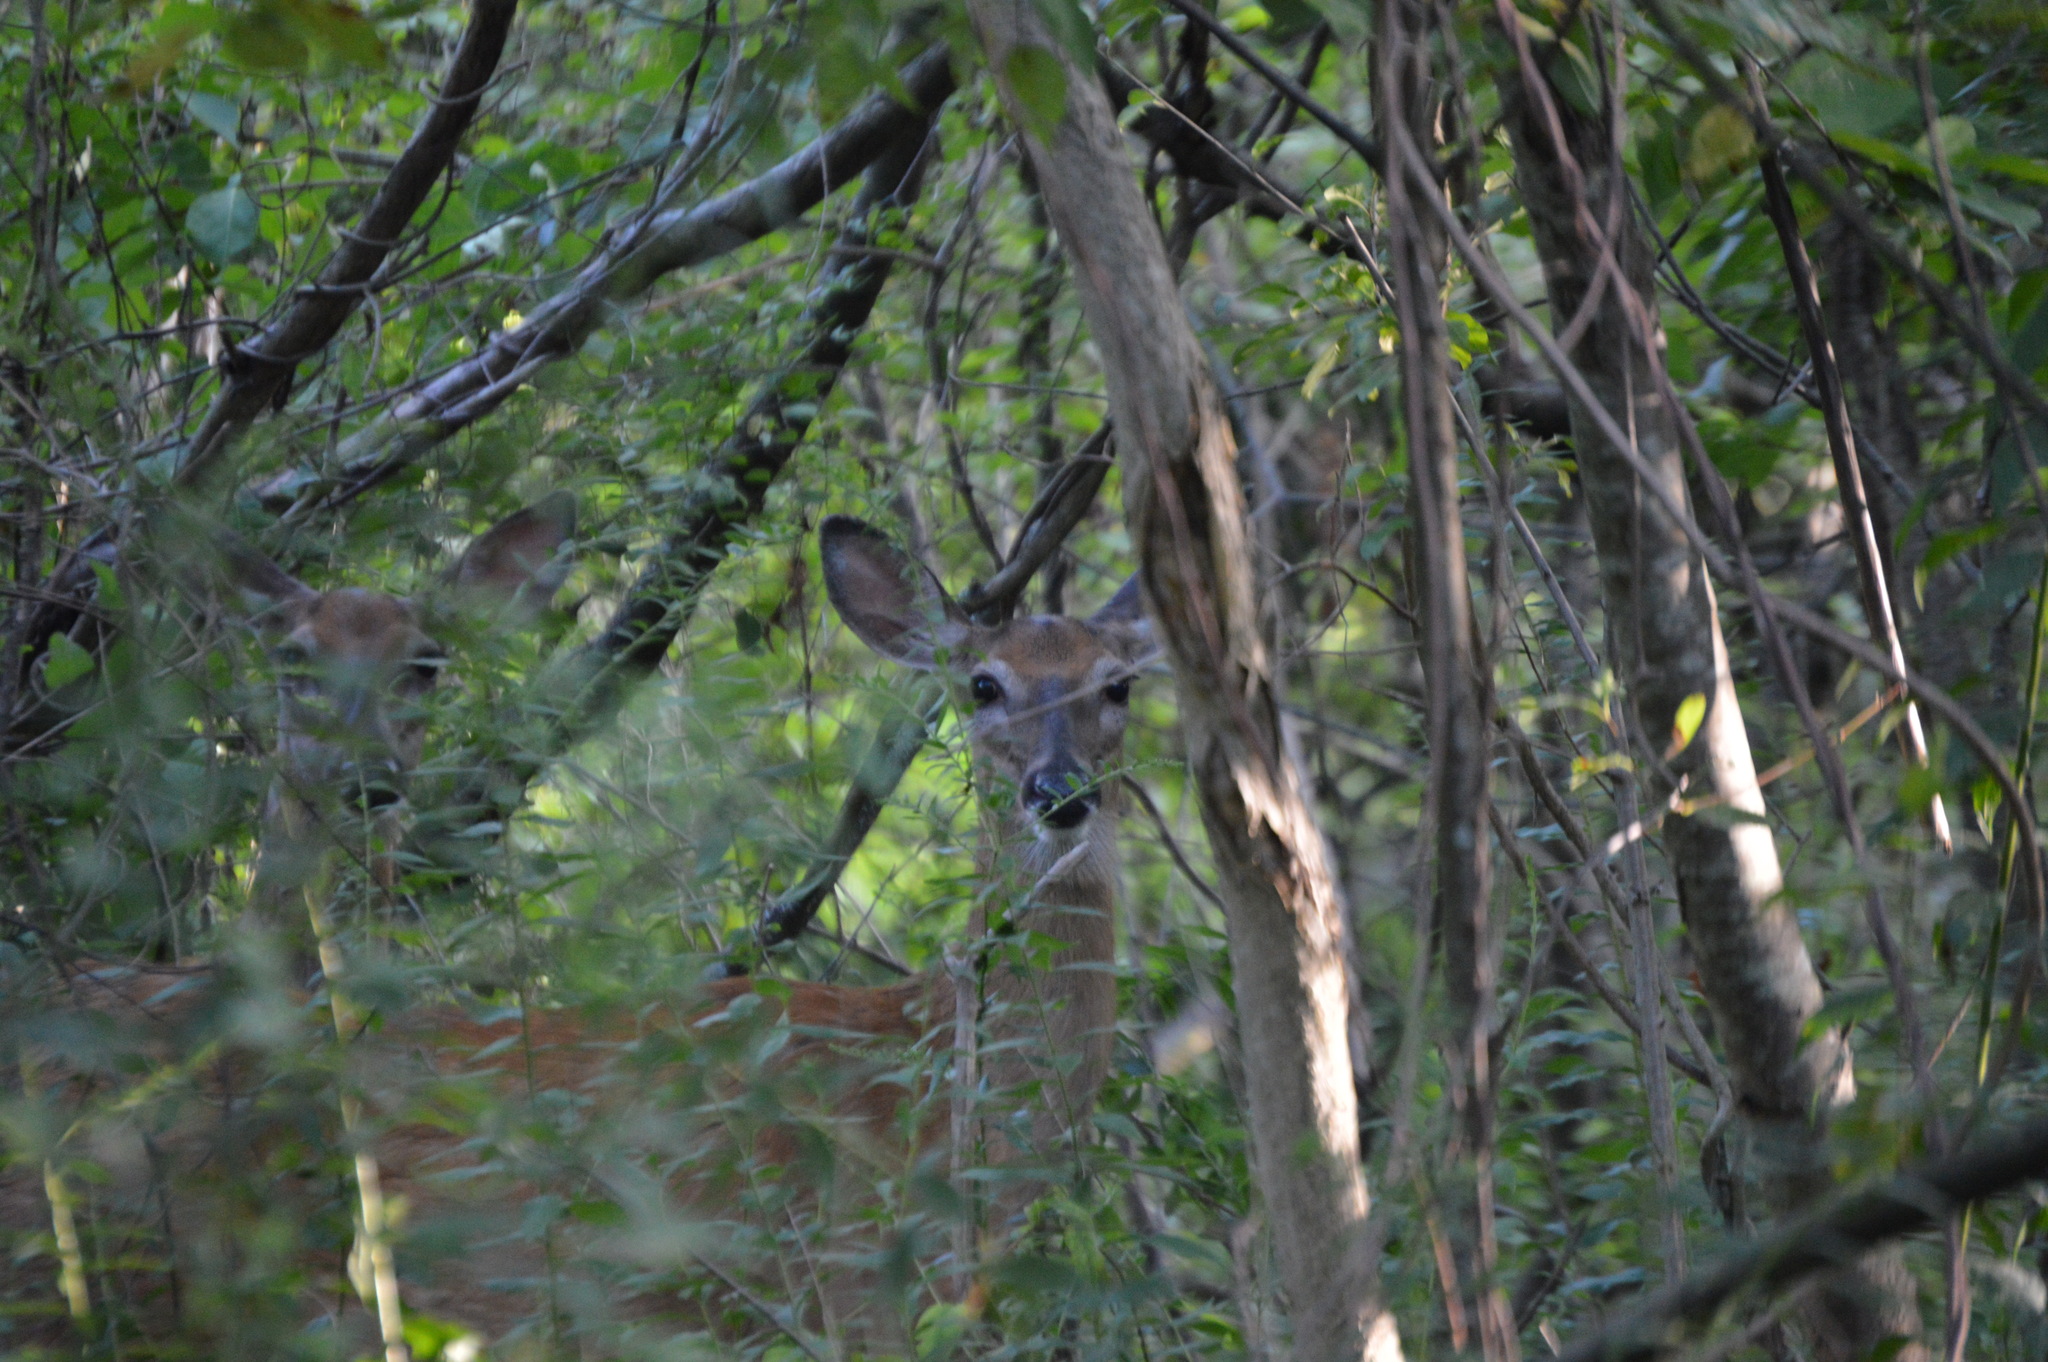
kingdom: Animalia
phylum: Chordata
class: Mammalia
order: Artiodactyla
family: Cervidae
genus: Odocoileus
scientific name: Odocoileus virginianus
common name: White-tailed deer
